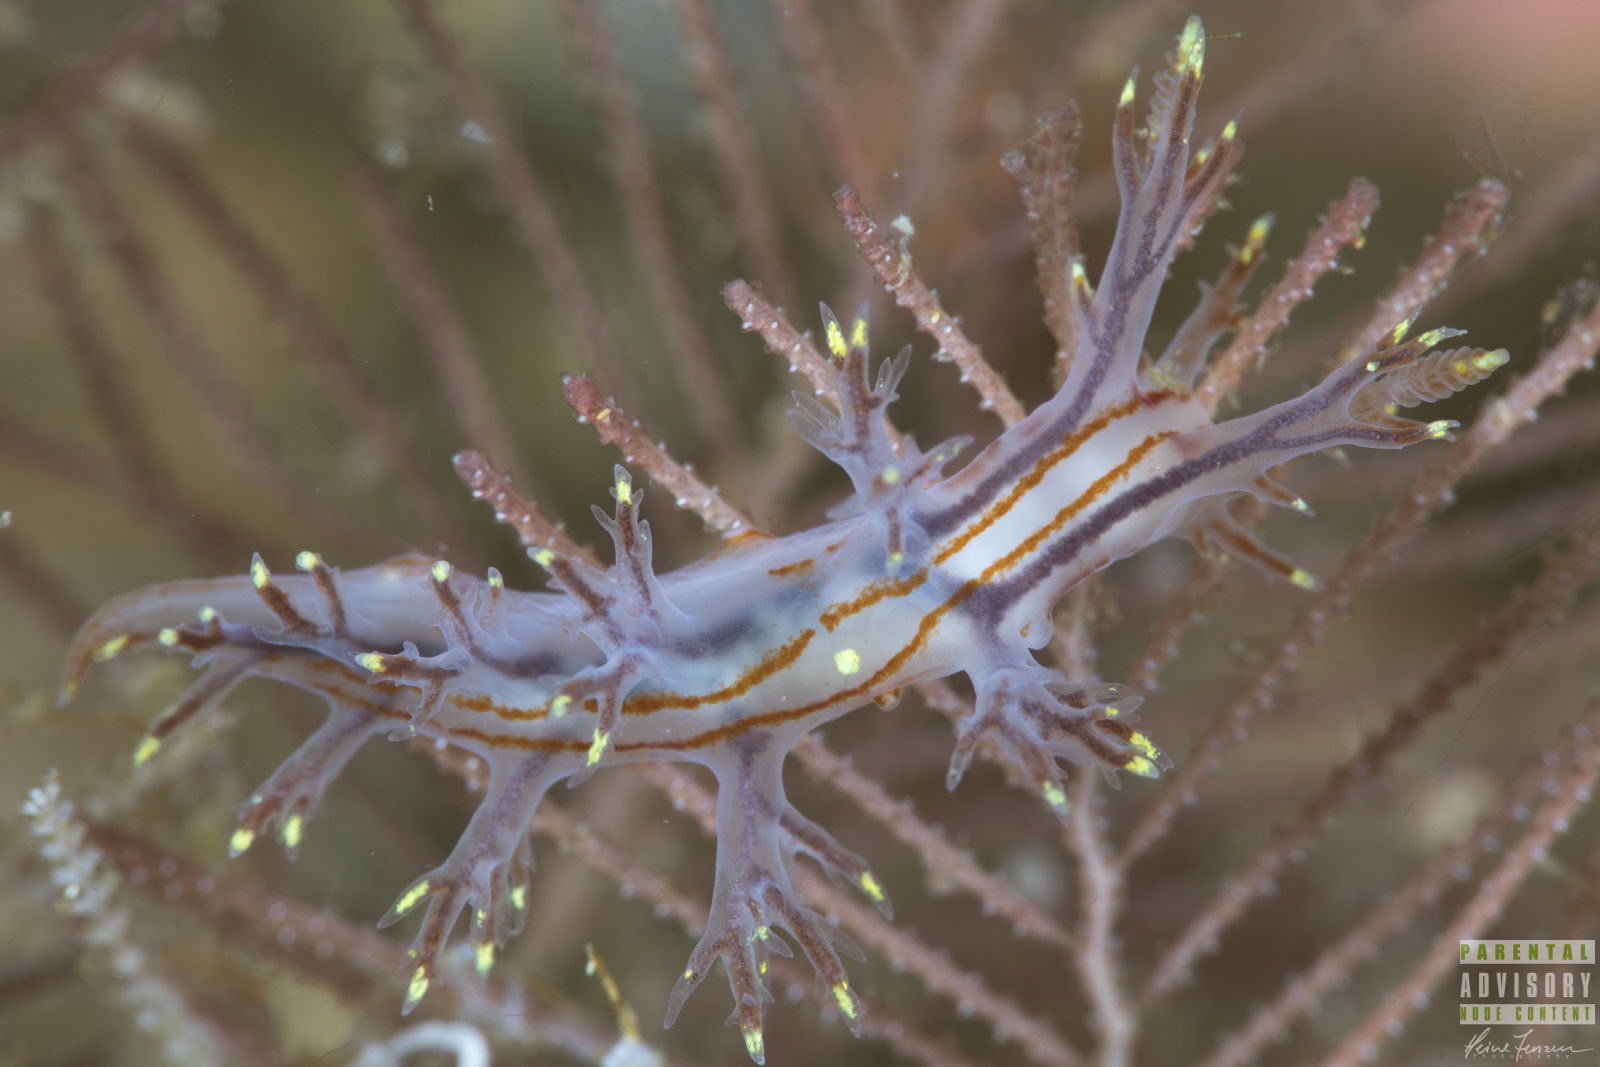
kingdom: Animalia
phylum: Mollusca
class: Gastropoda
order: Nudibranchia
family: Dendronotidae
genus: Dendronotus
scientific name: Dendronotus yrjargul
